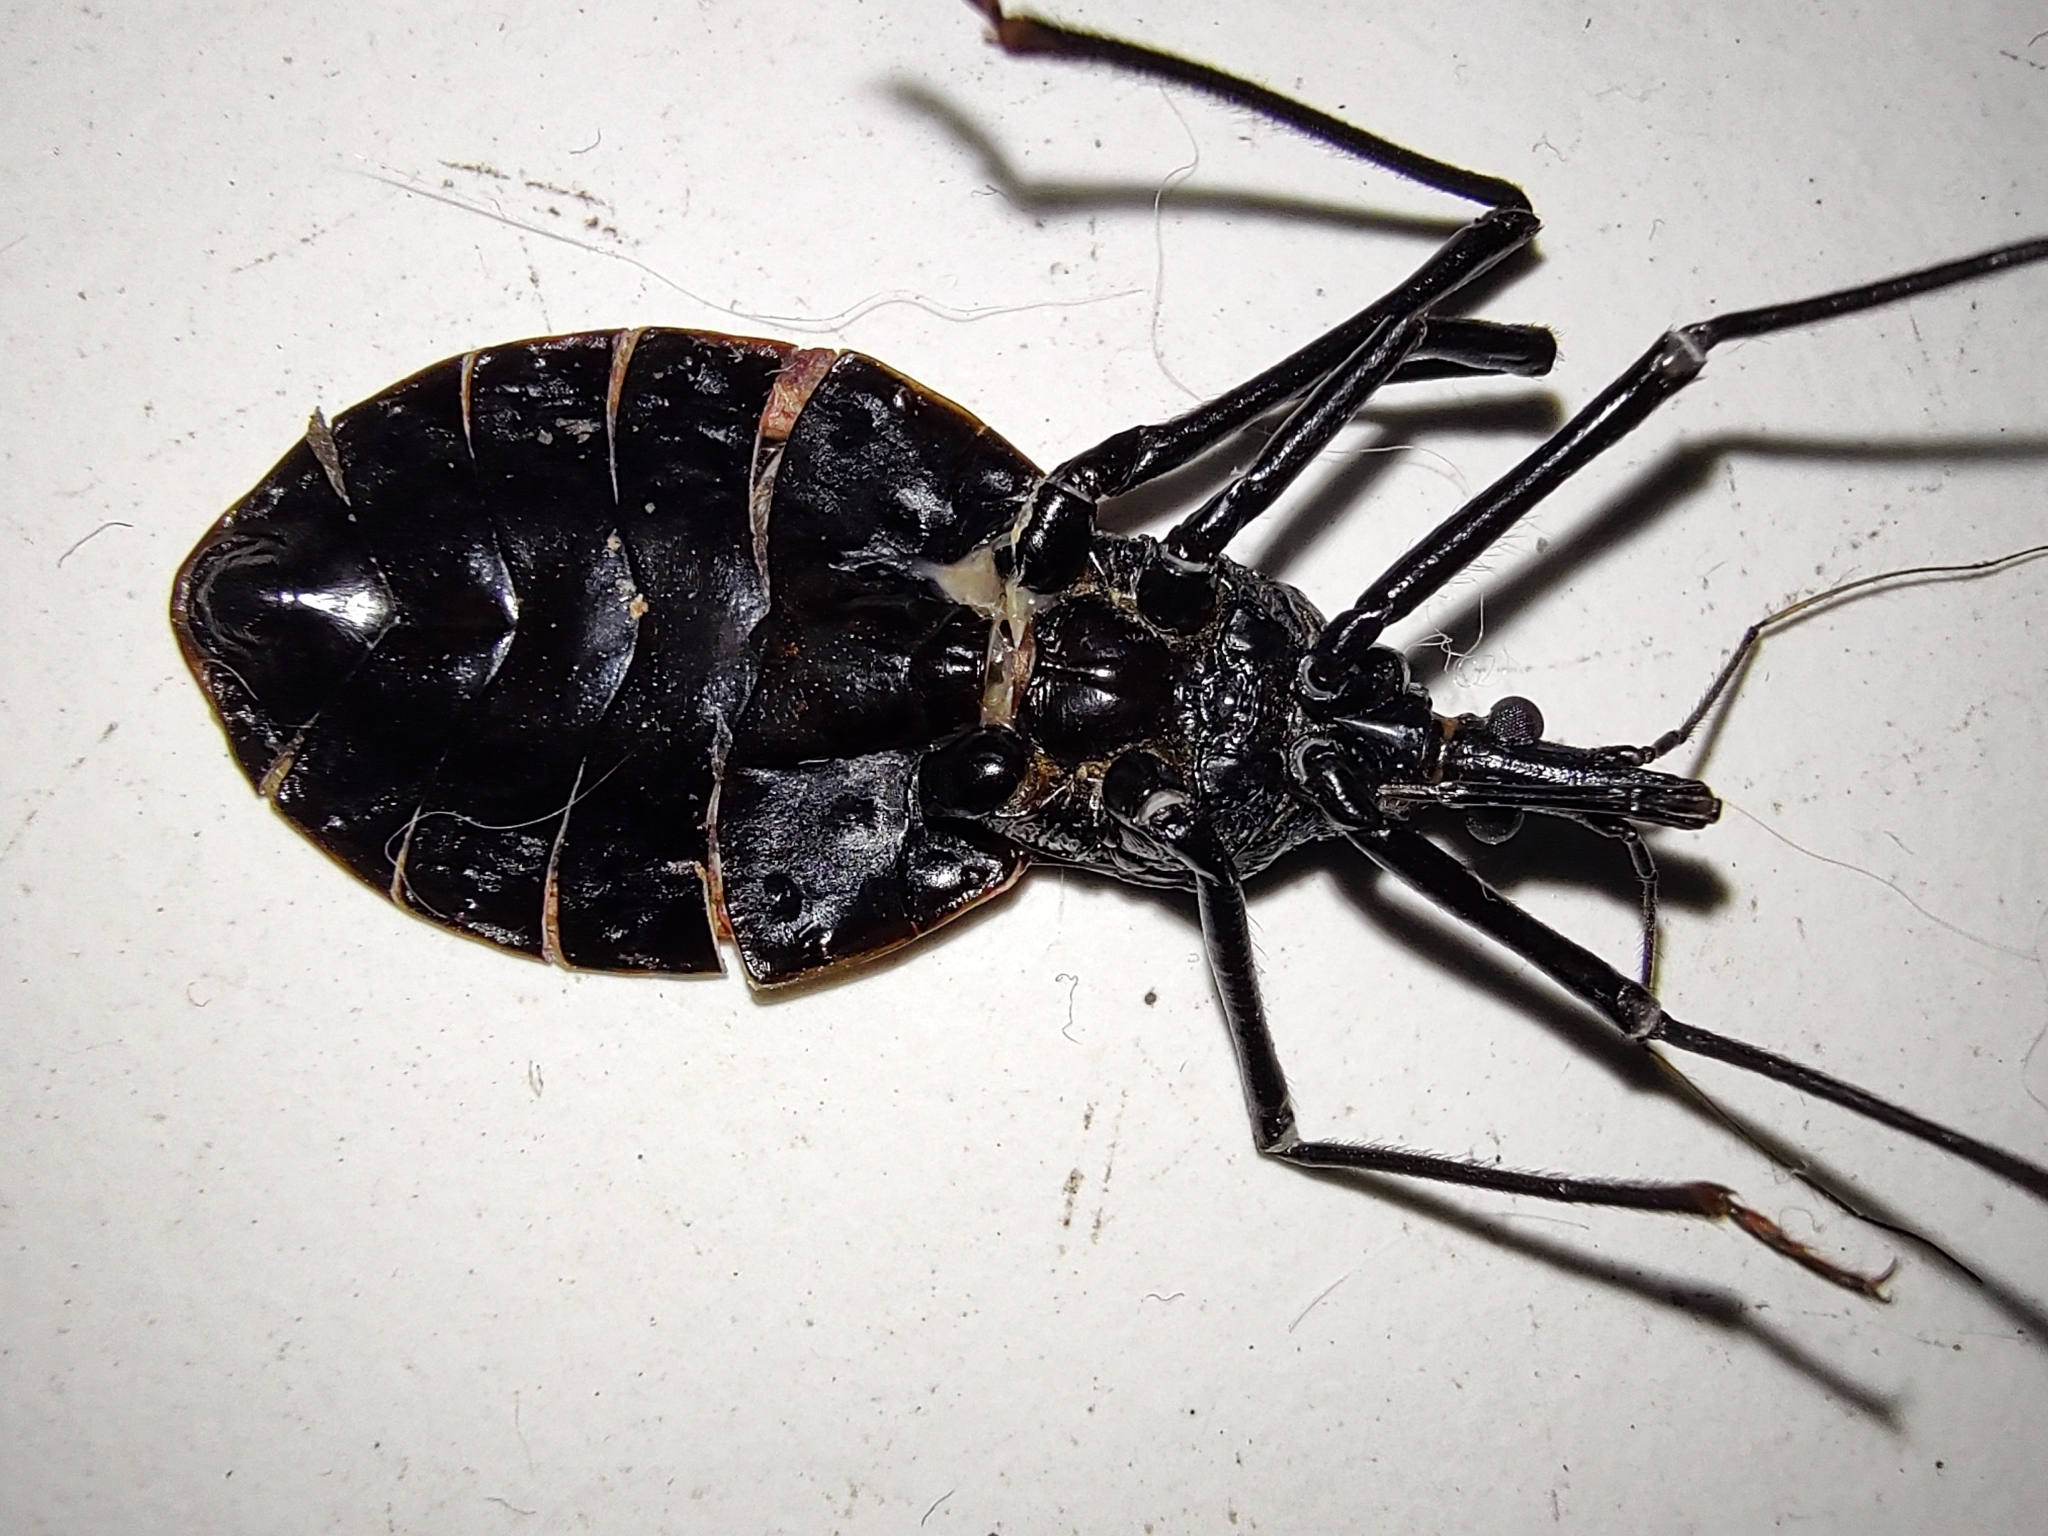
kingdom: Animalia
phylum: Arthropoda
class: Insecta
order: Hemiptera
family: Reduviidae
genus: Dipetalogaster
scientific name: Dipetalogaster maxima
